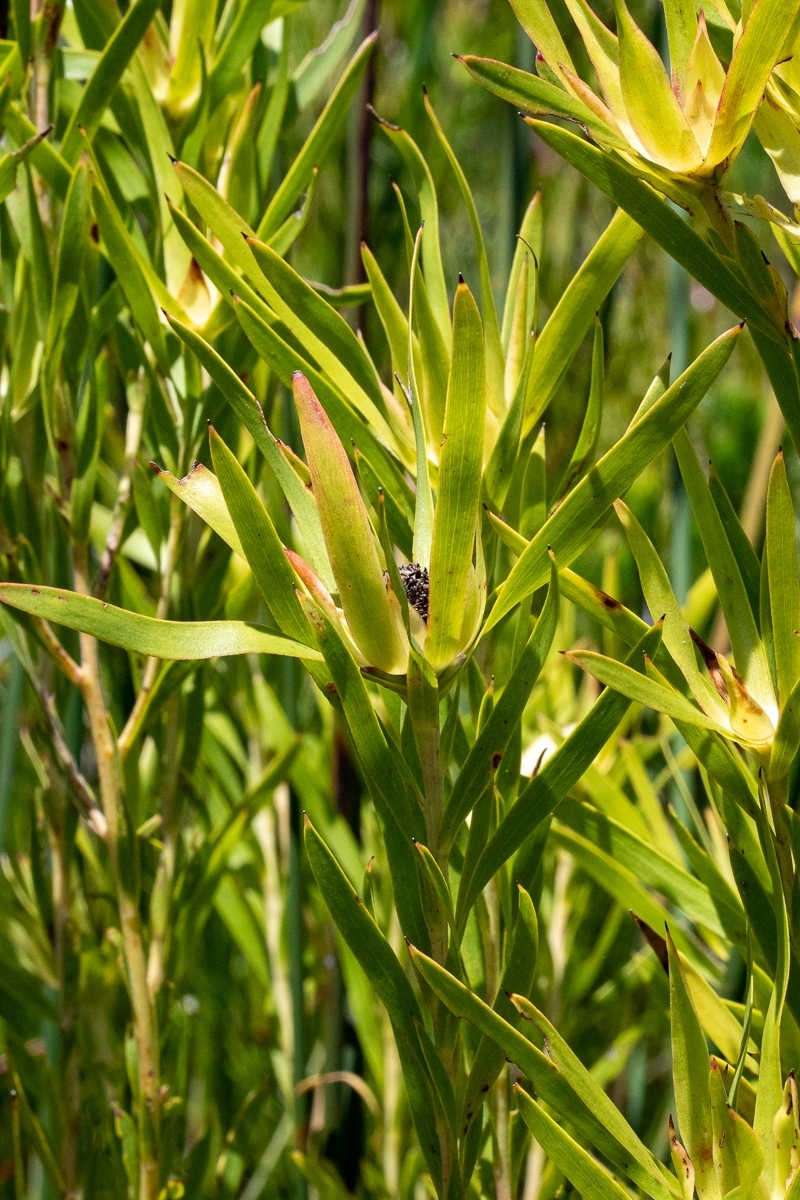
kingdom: Plantae
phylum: Tracheophyta
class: Magnoliopsida
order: Proteales
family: Proteaceae
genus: Leucadendron
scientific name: Leucadendron salicifolium
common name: Common stream conebush
